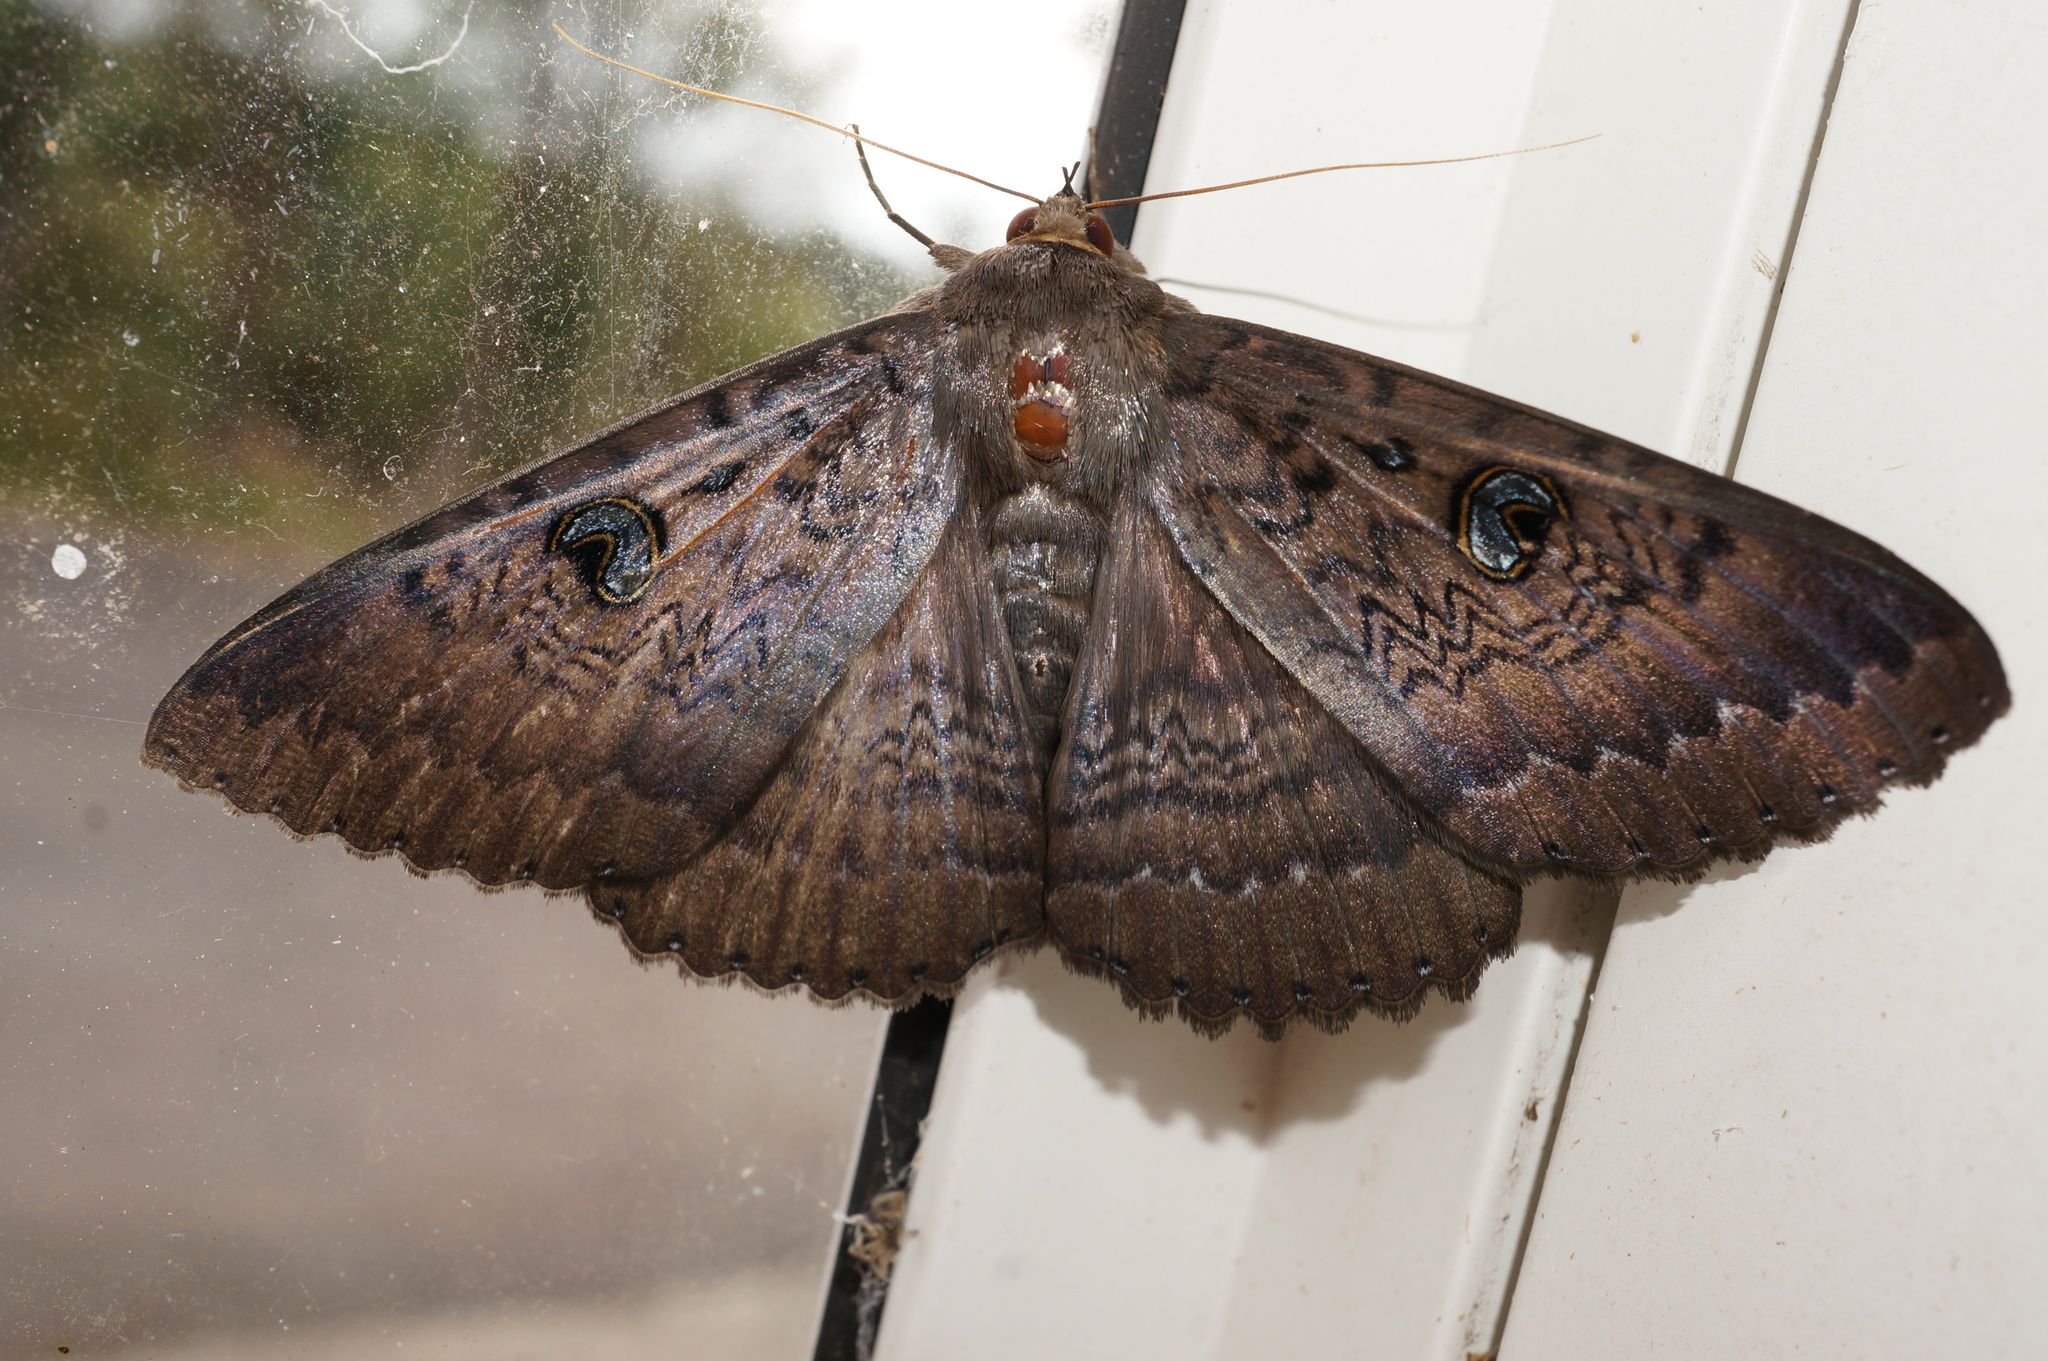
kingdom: Animalia
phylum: Arthropoda
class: Insecta
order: Lepidoptera
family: Erebidae
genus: Dasypodia
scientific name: Dasypodia cymatodes
